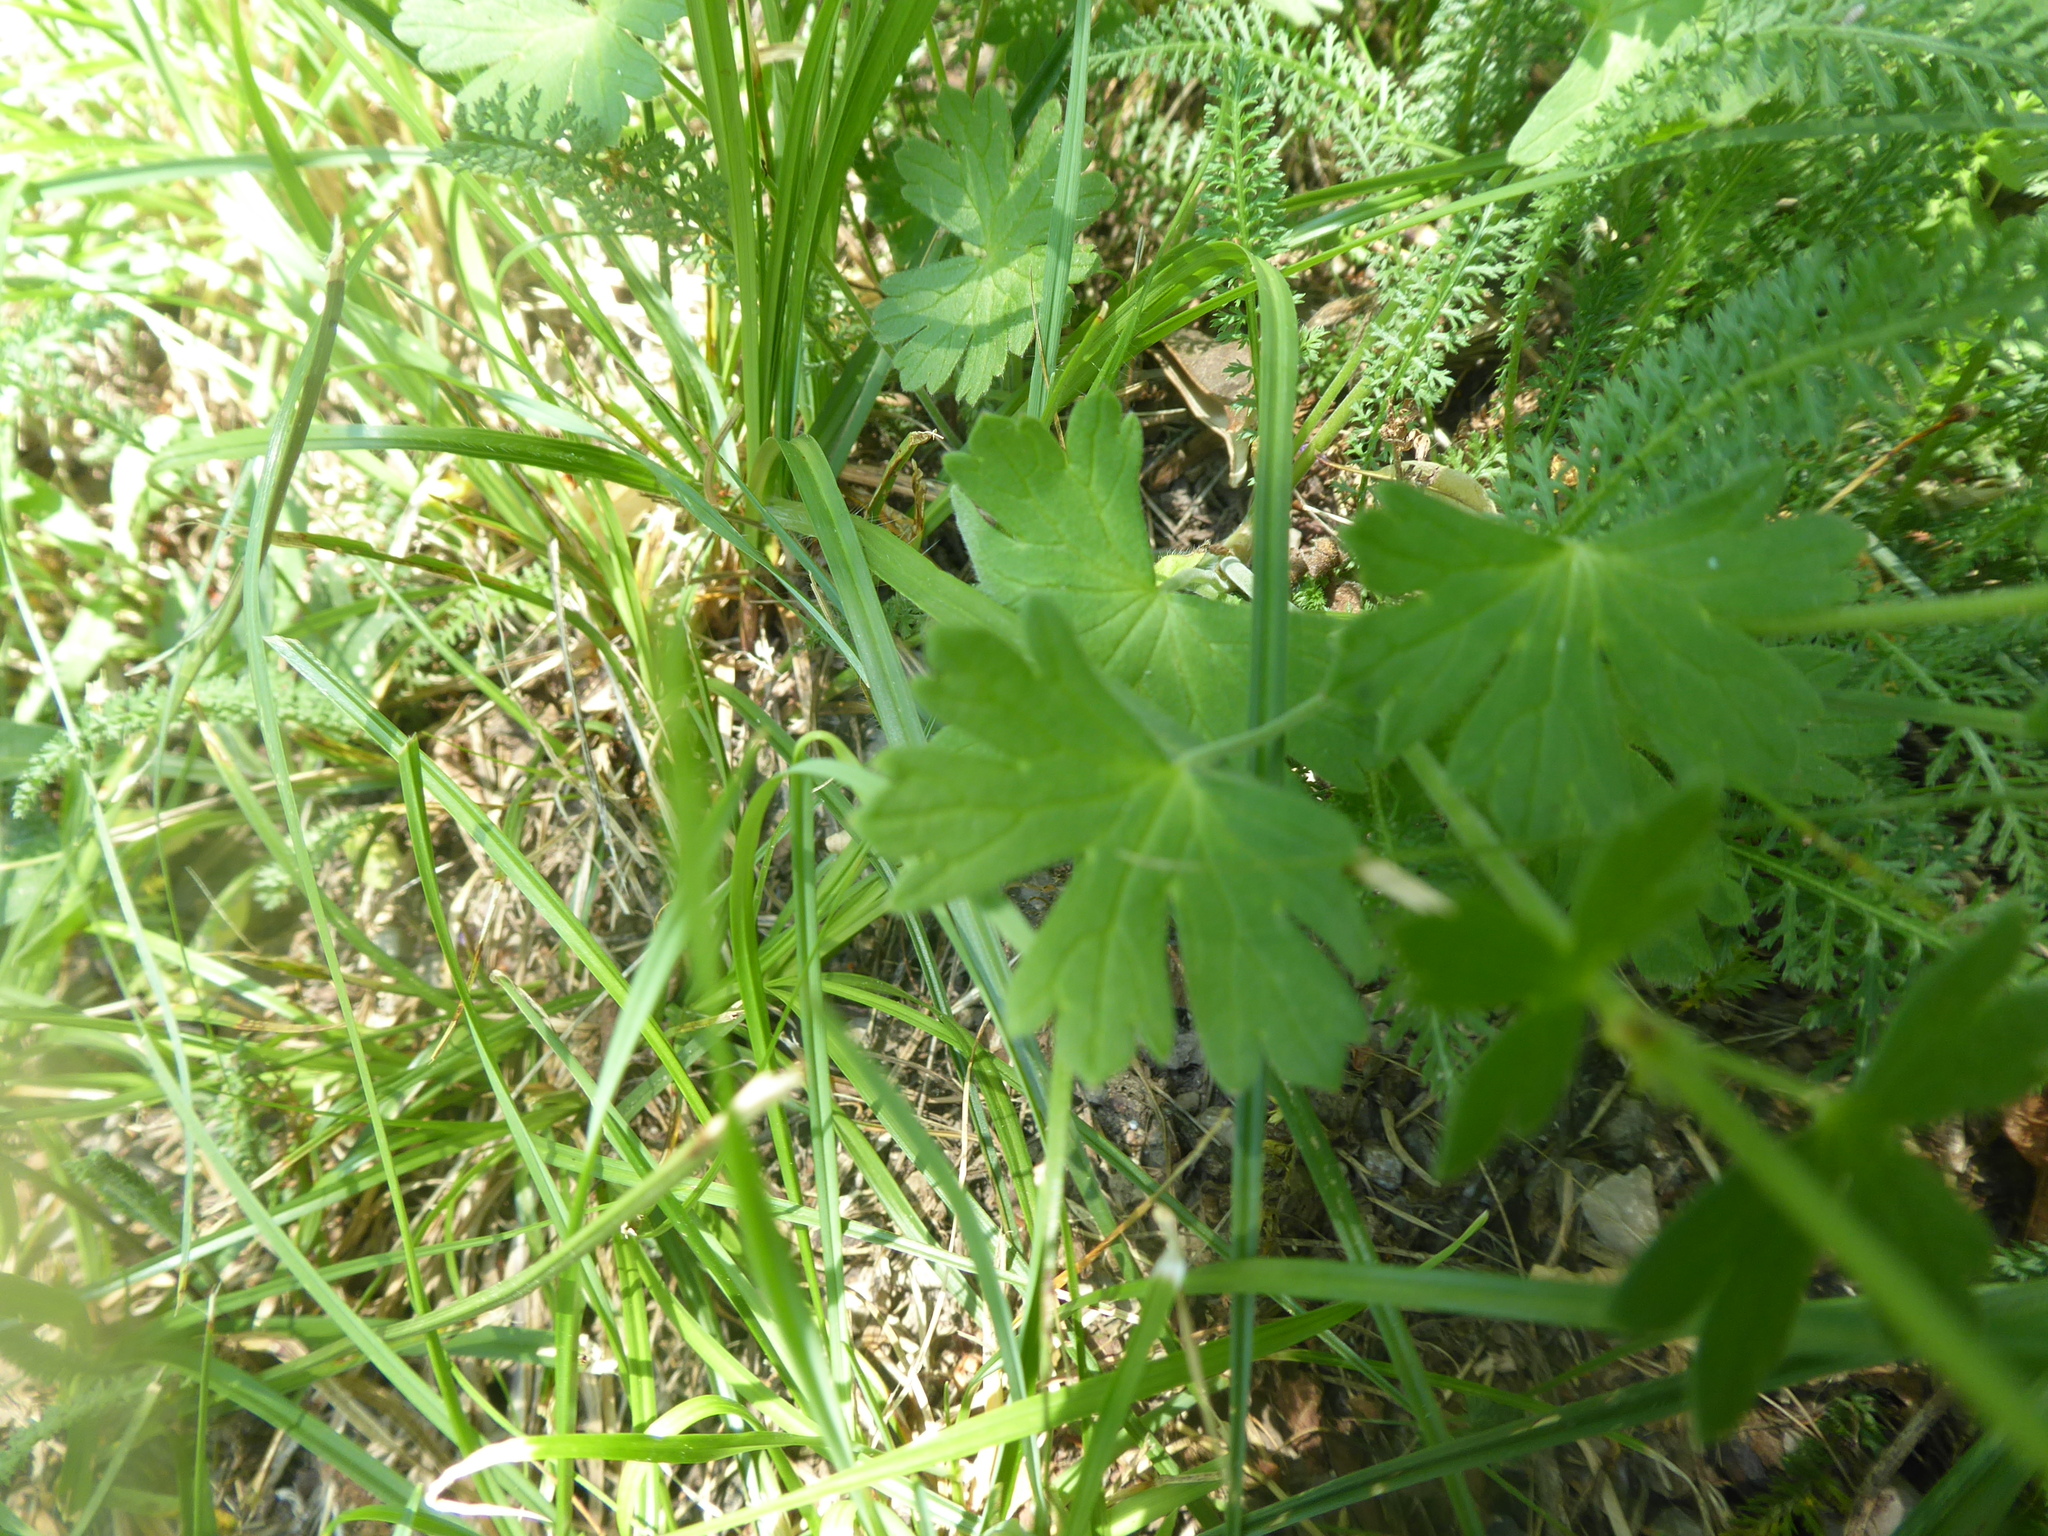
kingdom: Plantae
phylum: Tracheophyta
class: Magnoliopsida
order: Geraniales
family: Geraniaceae
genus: Geranium
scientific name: Geranium pyrenaicum
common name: Hedgerow crane's-bill
